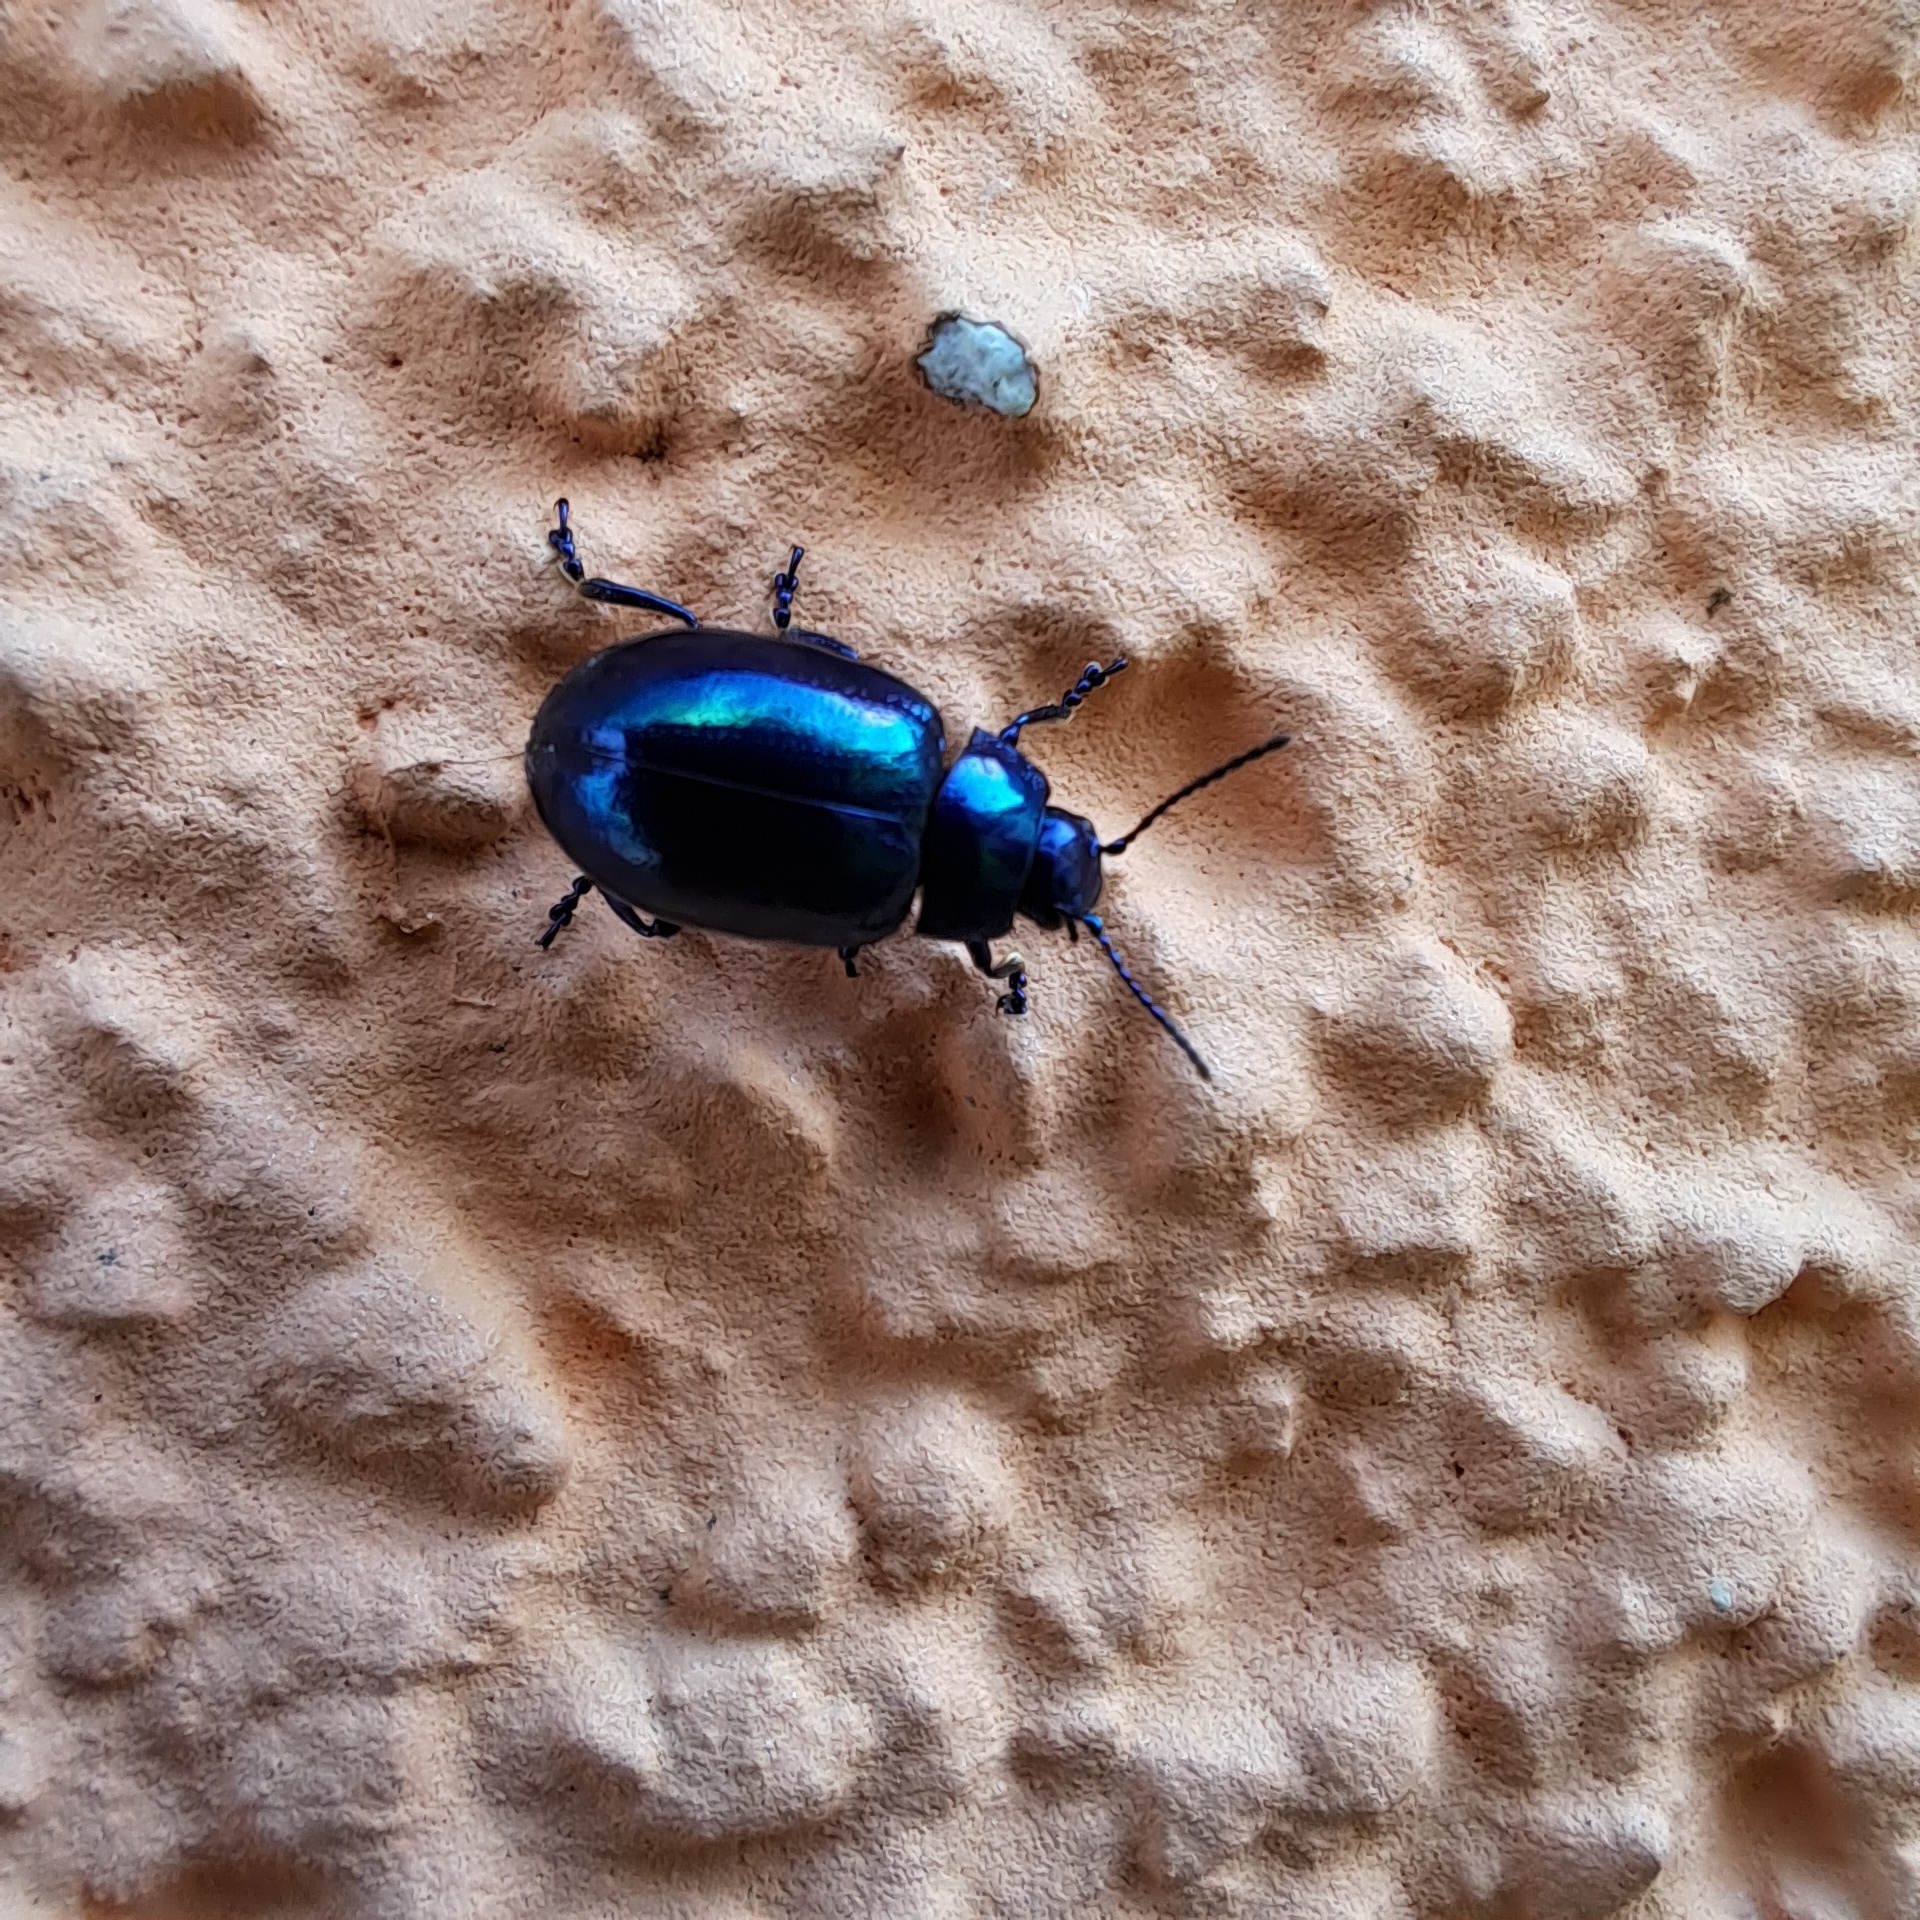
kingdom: Animalia
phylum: Arthropoda
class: Insecta
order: Coleoptera
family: Chrysomelidae
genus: Chrysolina
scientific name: Chrysolina coerulans
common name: Blue mint beetle
